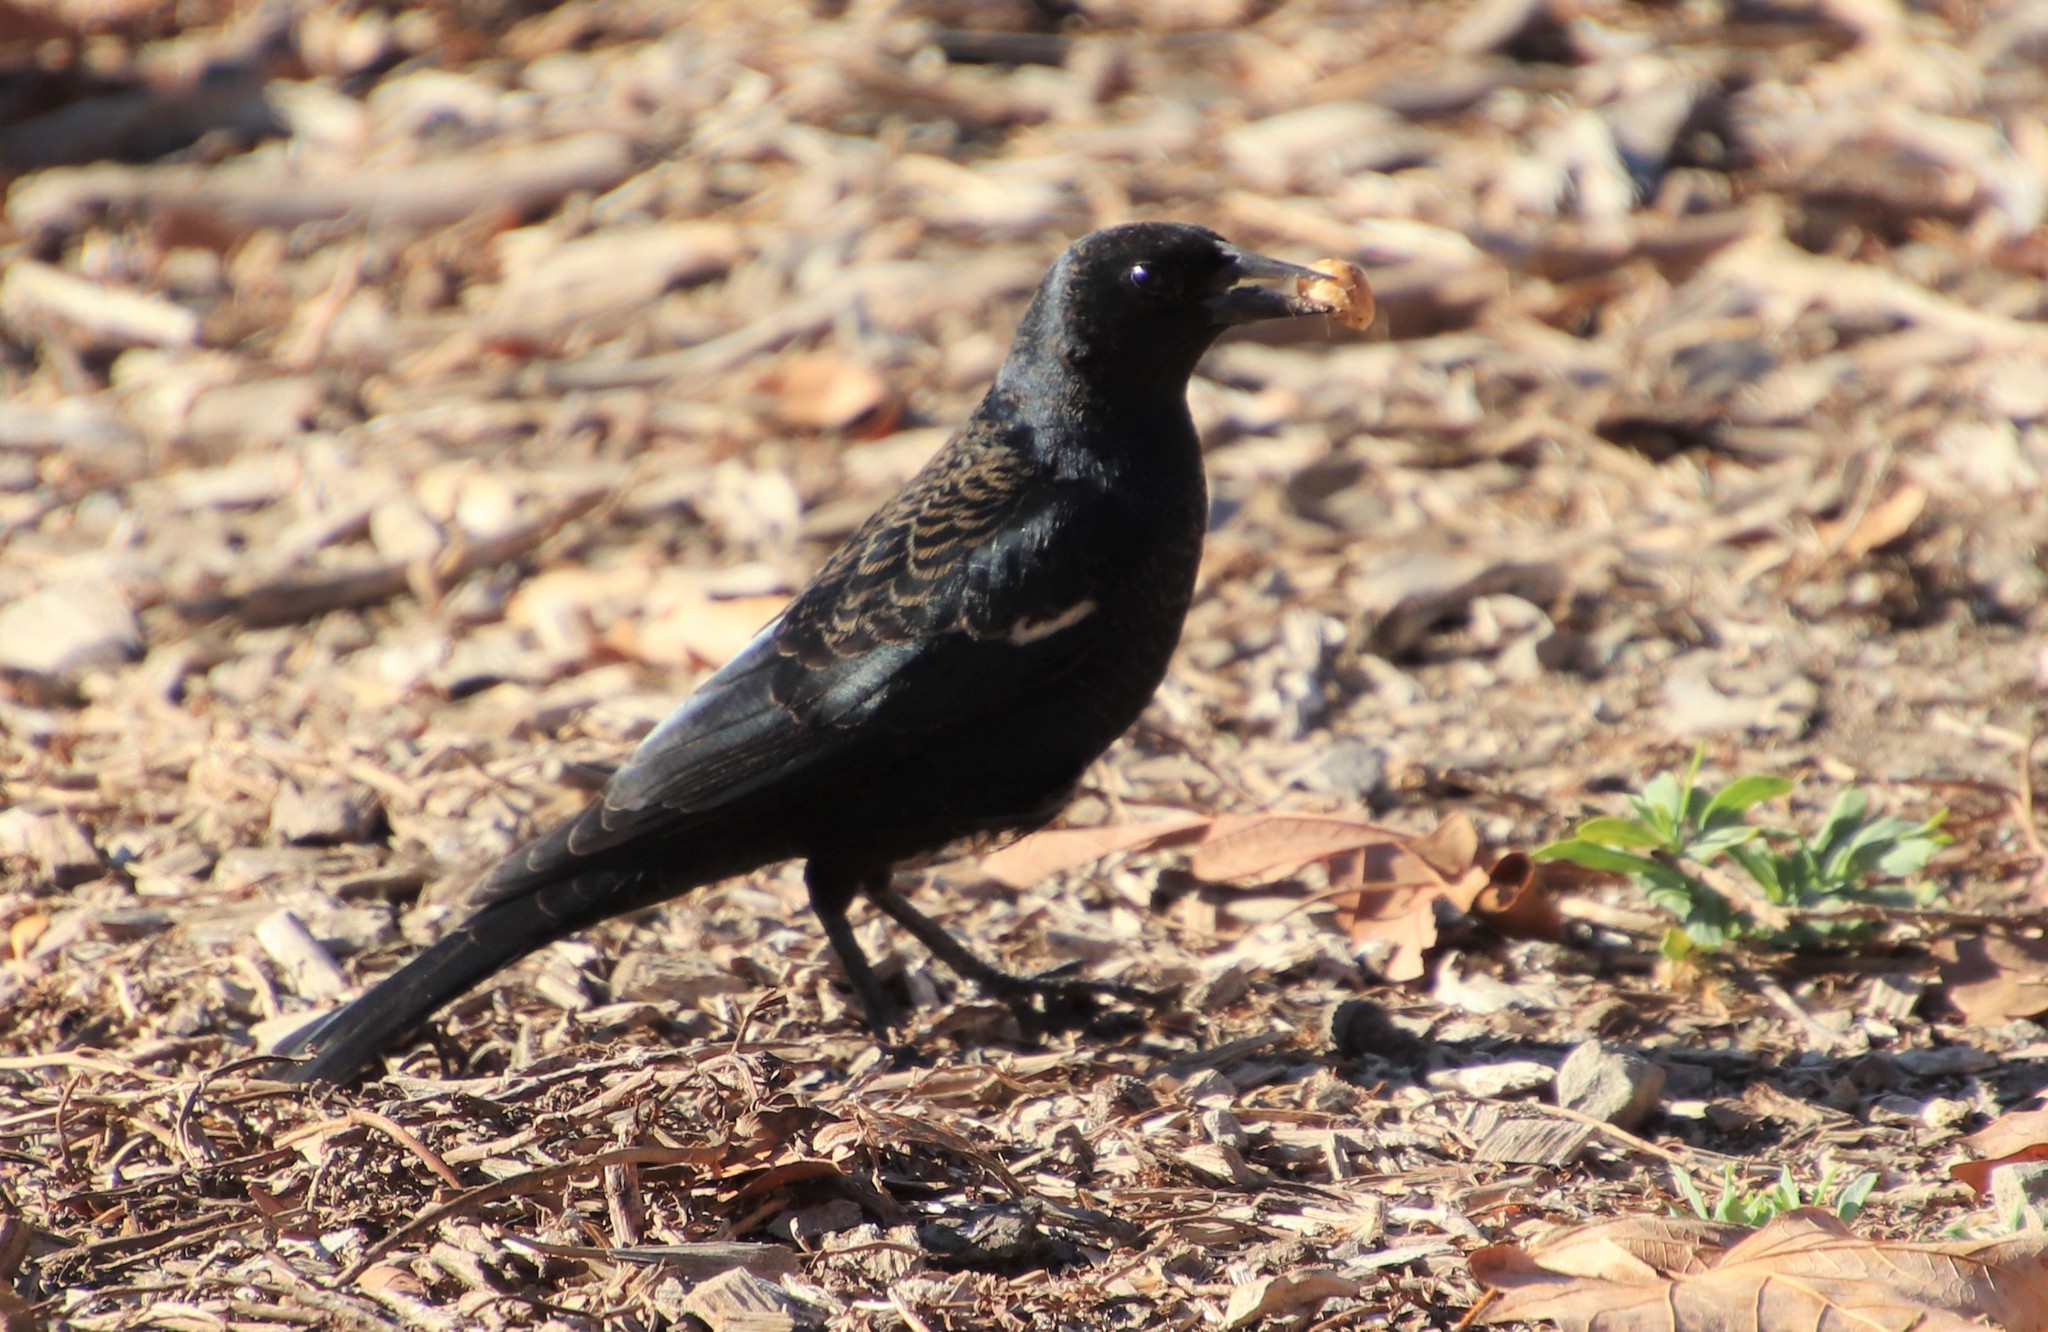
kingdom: Animalia
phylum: Chordata
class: Aves
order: Passeriformes
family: Icteridae
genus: Agelaius
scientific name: Agelaius phoeniceus
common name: Red-winged blackbird
